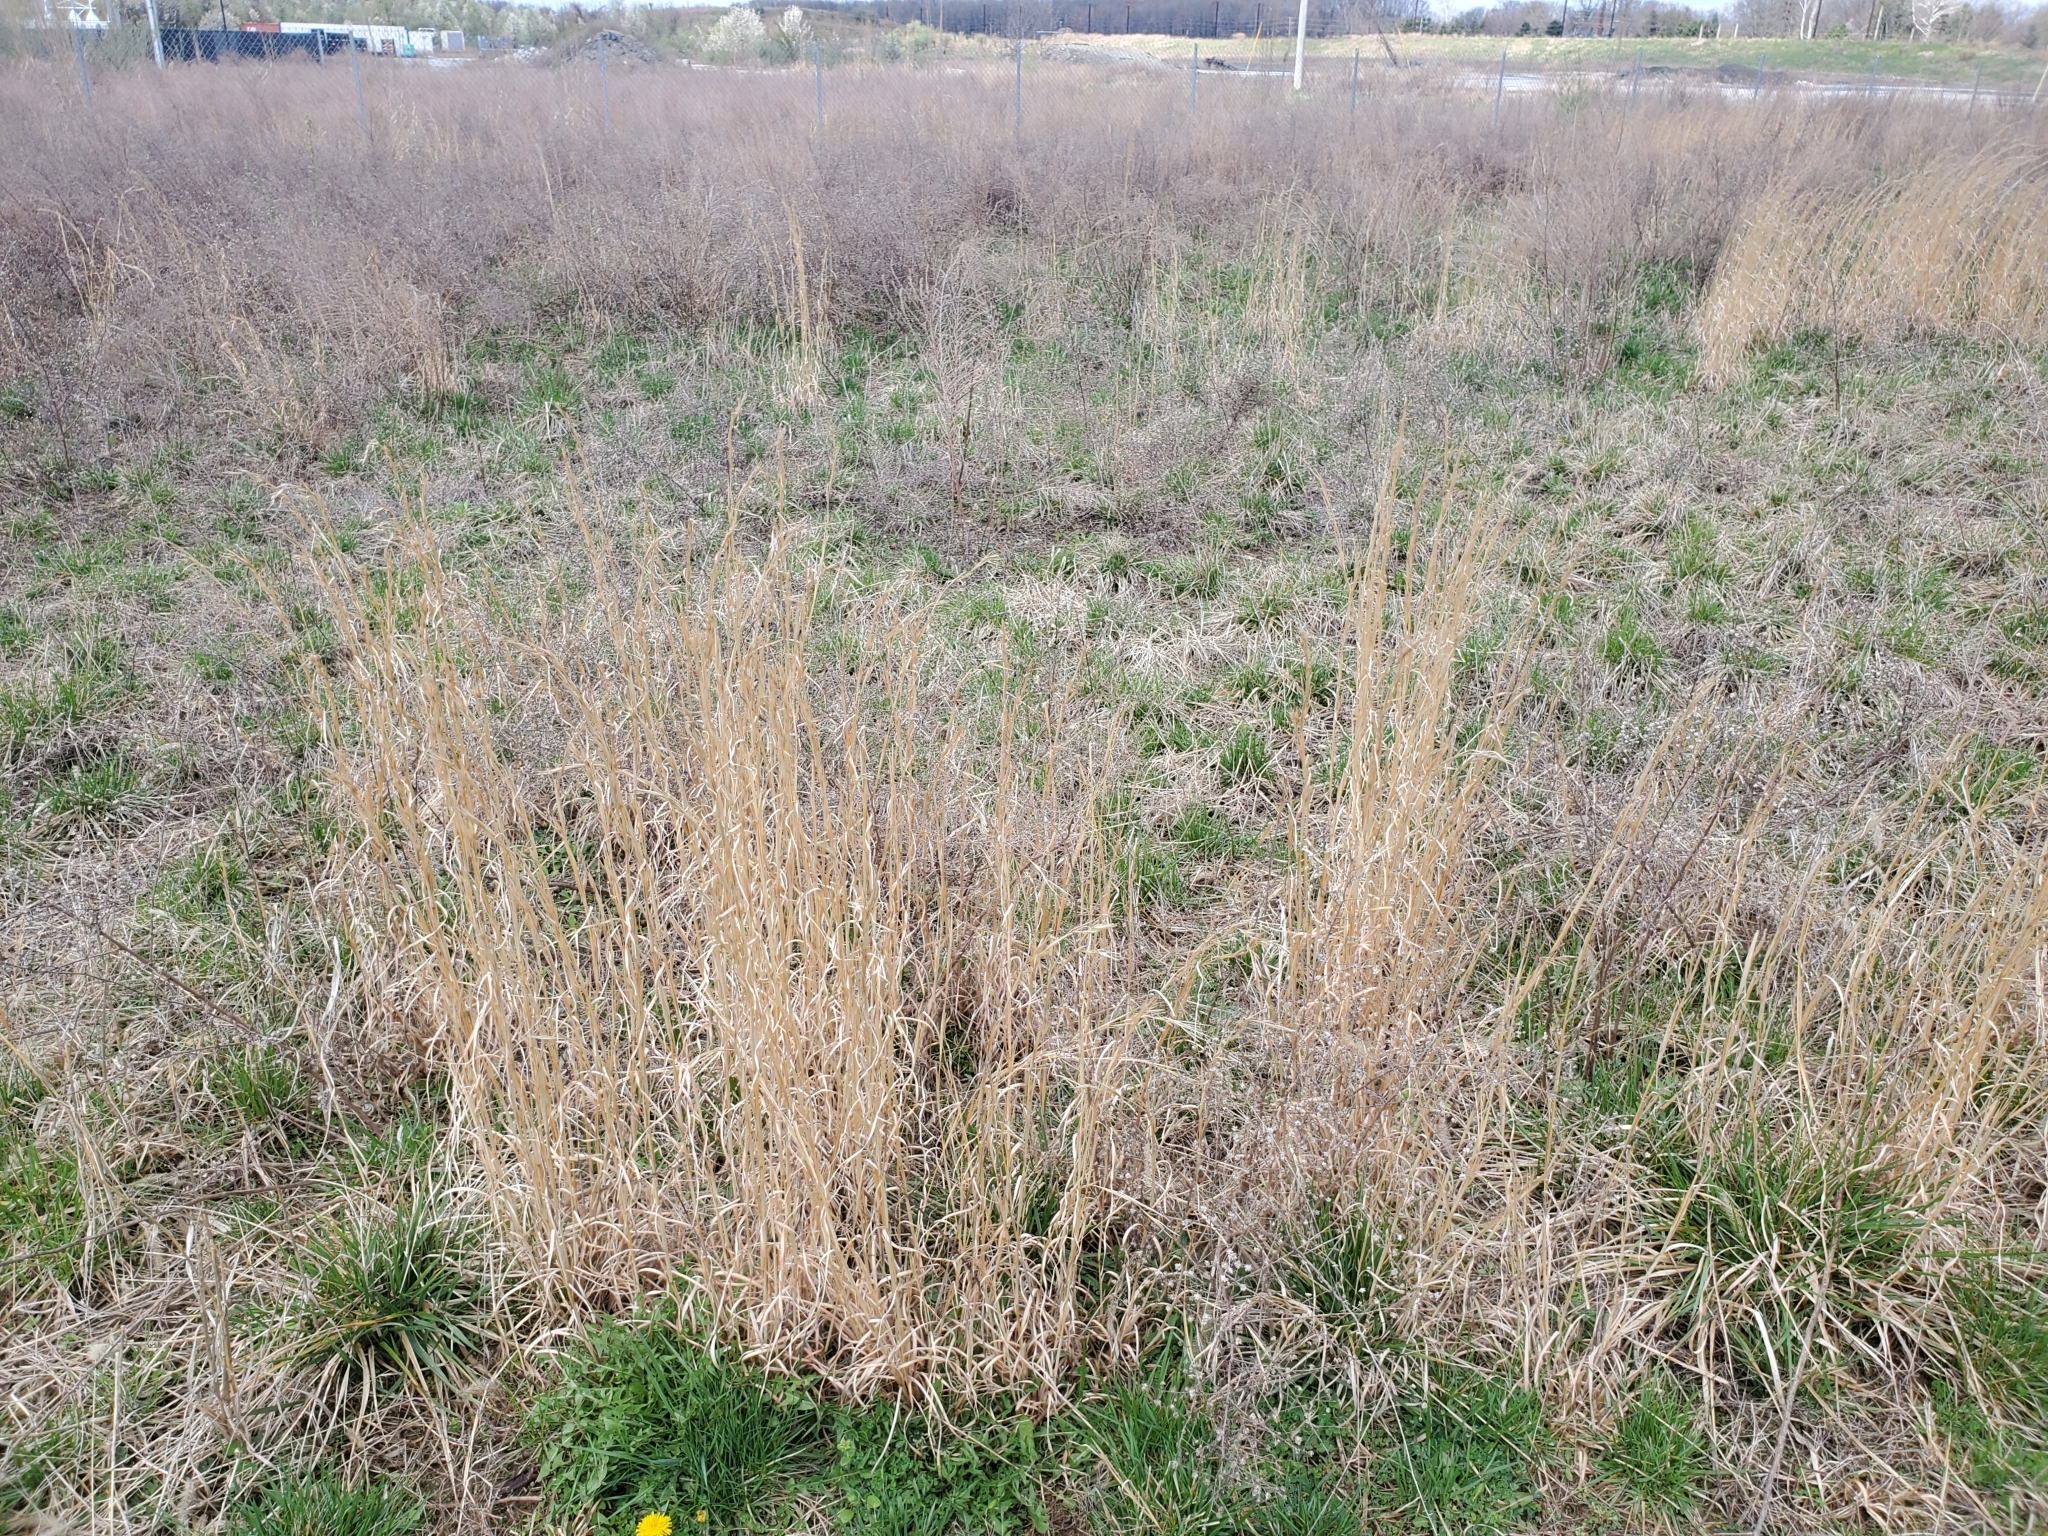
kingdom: Plantae
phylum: Tracheophyta
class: Liliopsida
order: Poales
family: Poaceae
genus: Andropogon
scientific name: Andropogon virginicus
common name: Broomsedge bluestem
